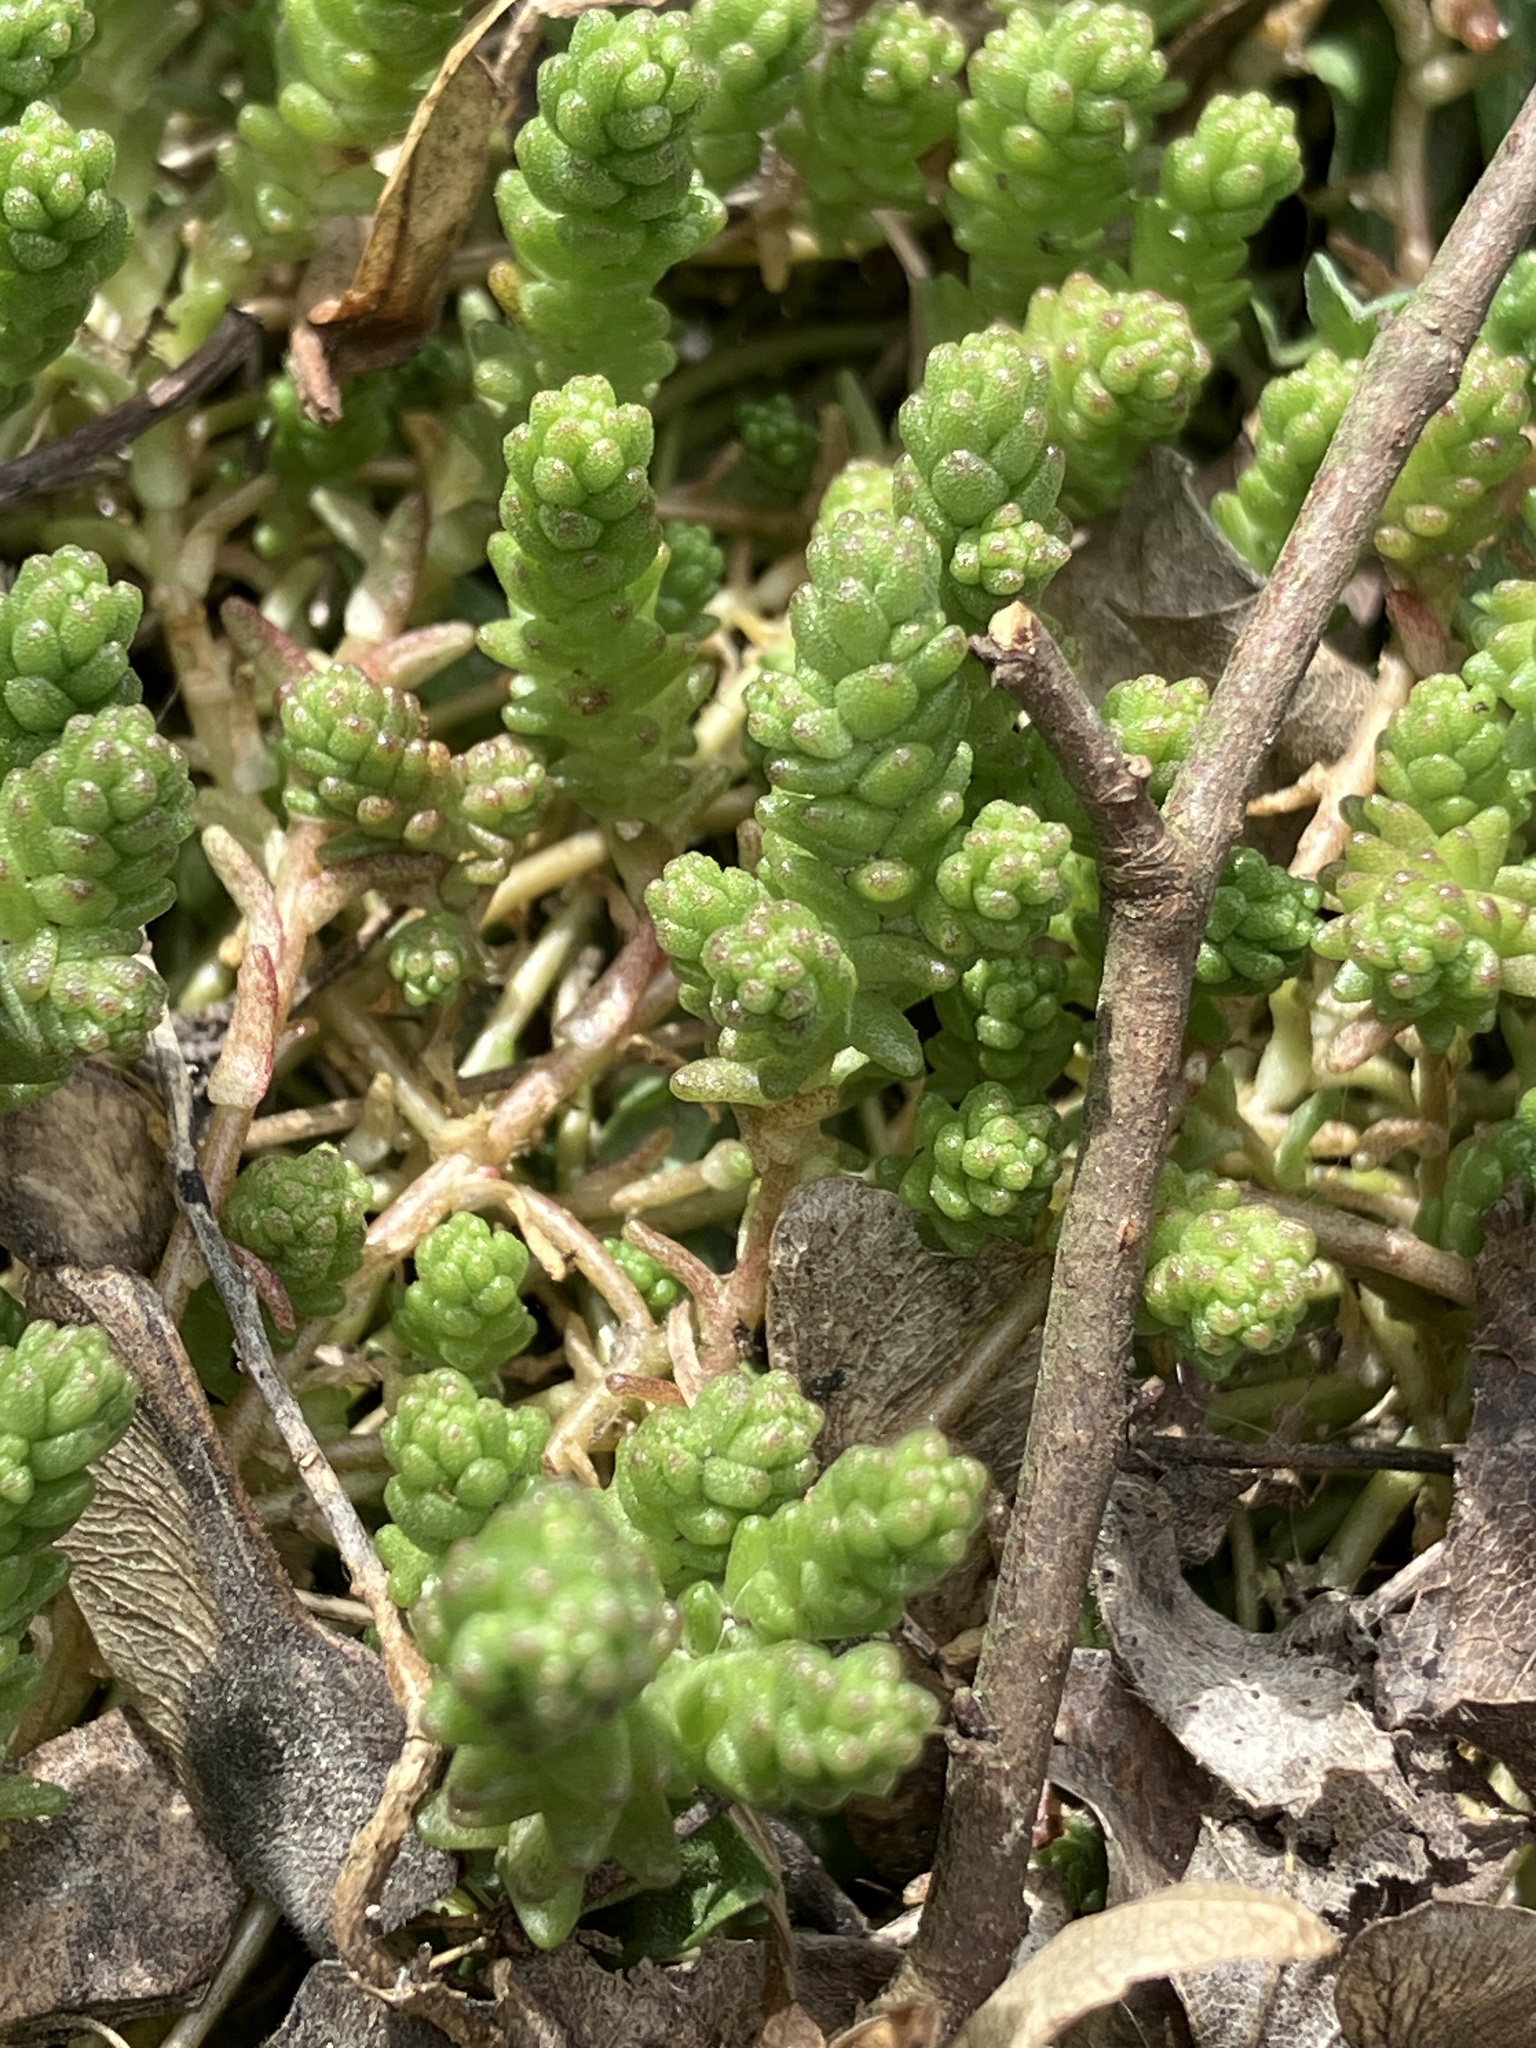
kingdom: Plantae
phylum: Tracheophyta
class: Magnoliopsida
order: Saxifragales
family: Crassulaceae
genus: Sedum
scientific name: Sedum acre
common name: Biting stonecrop
